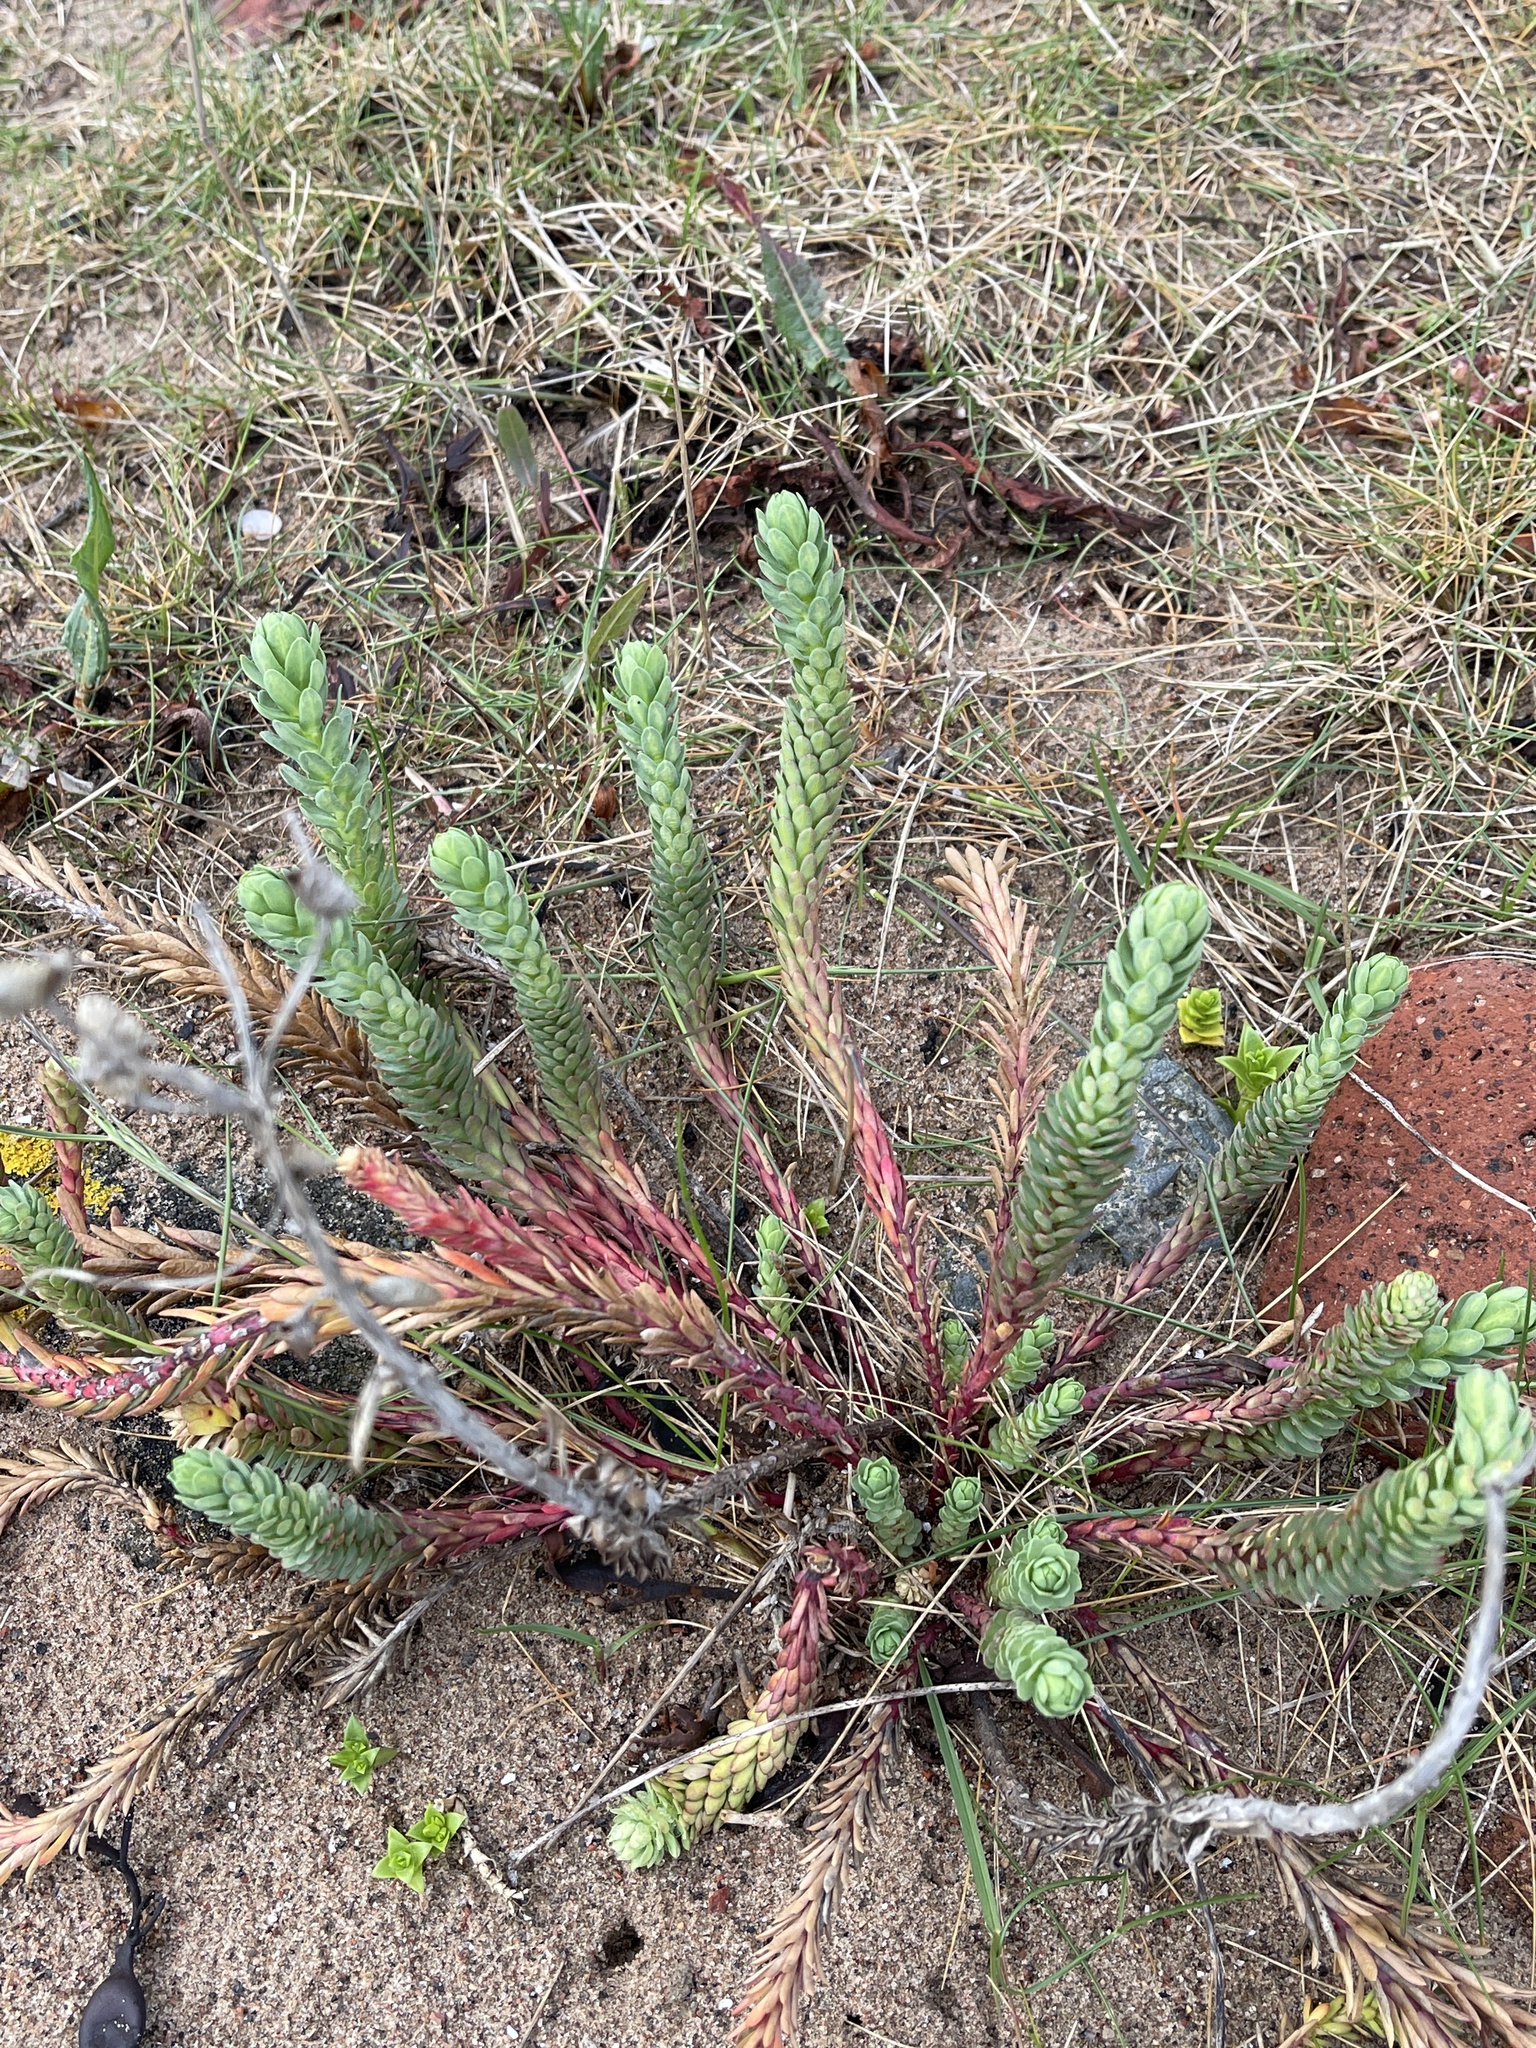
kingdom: Plantae
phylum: Tracheophyta
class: Magnoliopsida
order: Malpighiales
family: Euphorbiaceae
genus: Euphorbia
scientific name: Euphorbia paralias
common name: Sea spurge
